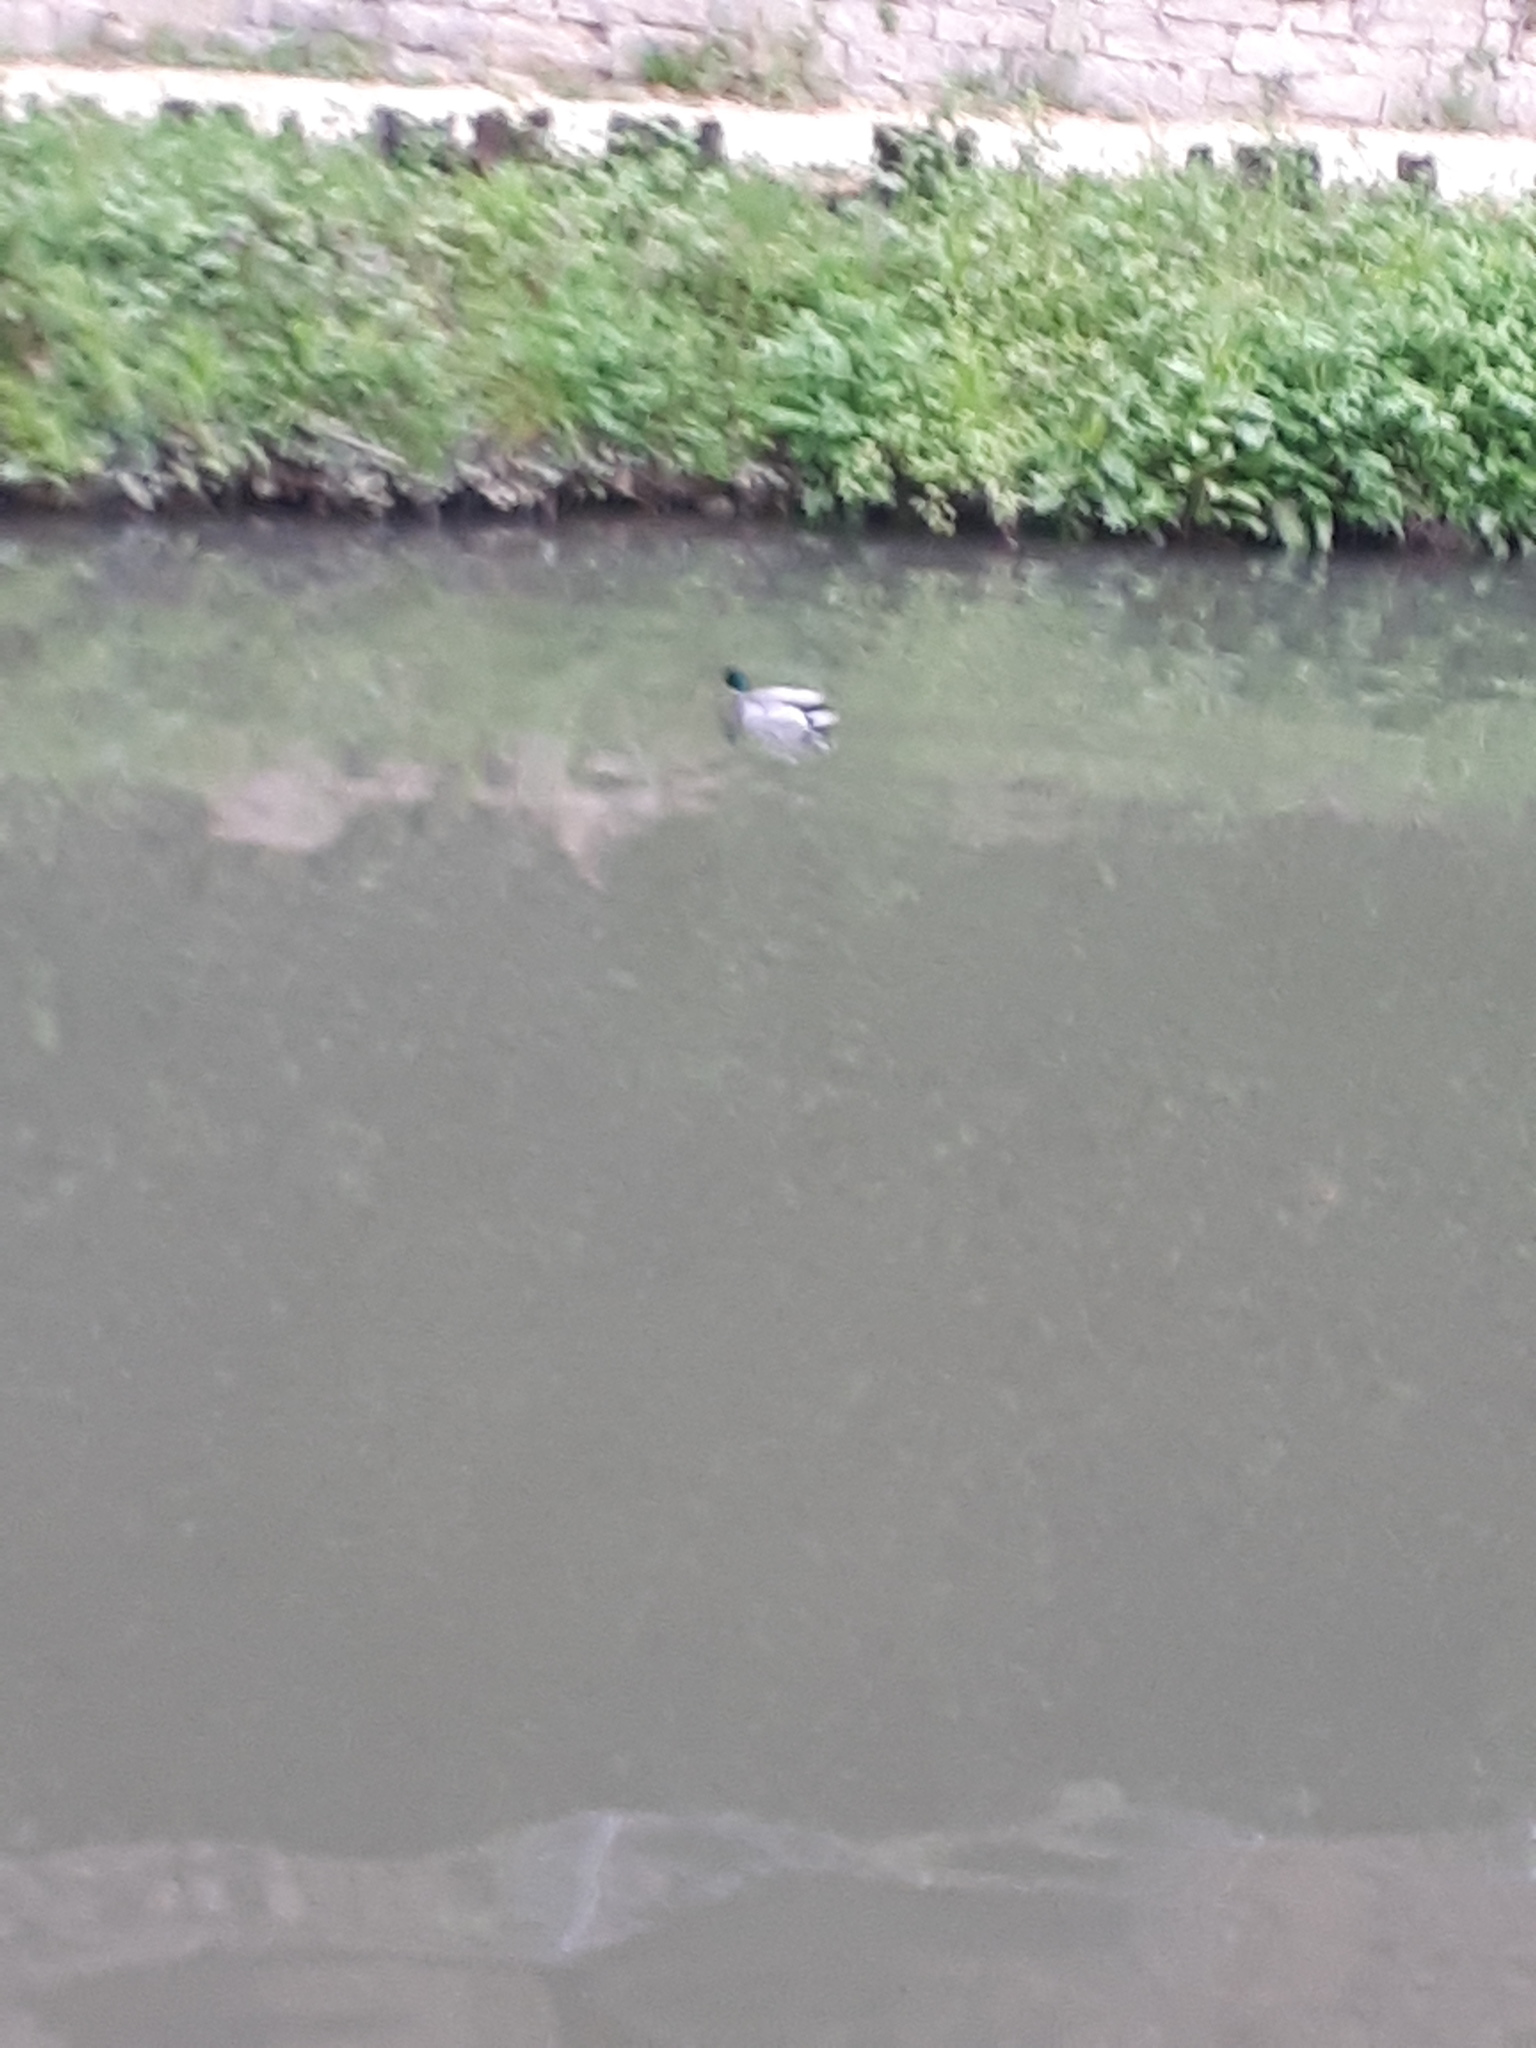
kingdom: Animalia
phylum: Chordata
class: Aves
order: Anseriformes
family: Anatidae
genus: Anas
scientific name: Anas platyrhynchos
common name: Mallard
